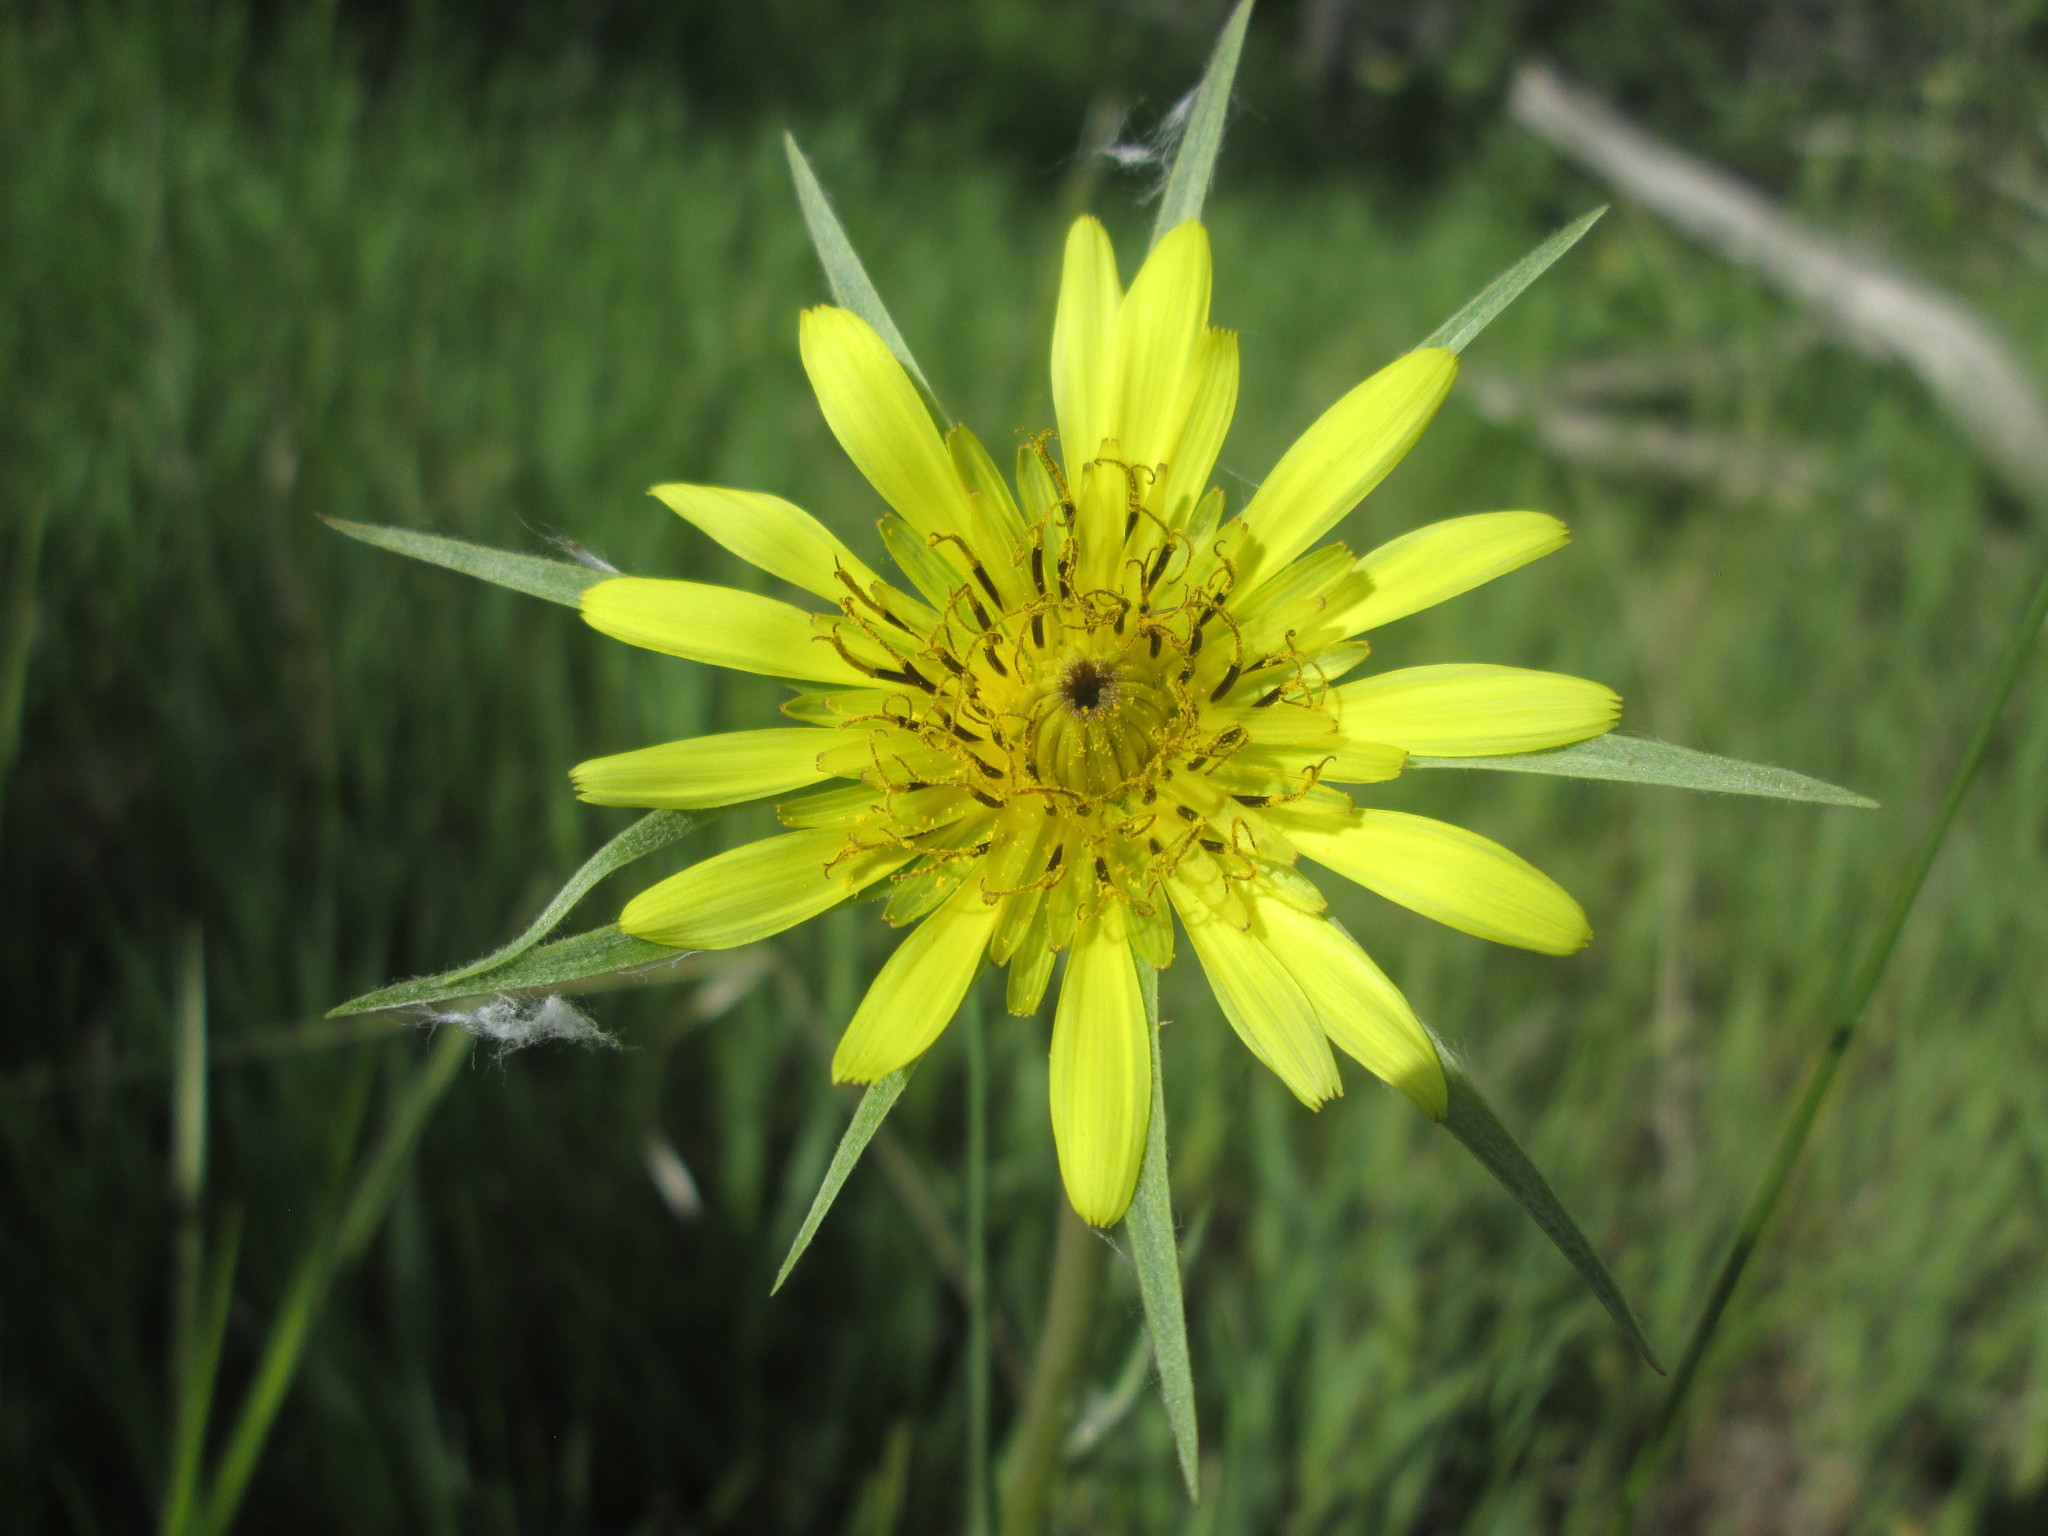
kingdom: Plantae
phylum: Tracheophyta
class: Magnoliopsida
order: Asterales
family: Asteraceae
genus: Tragopogon
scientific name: Tragopogon dubius
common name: Yellow salsify
